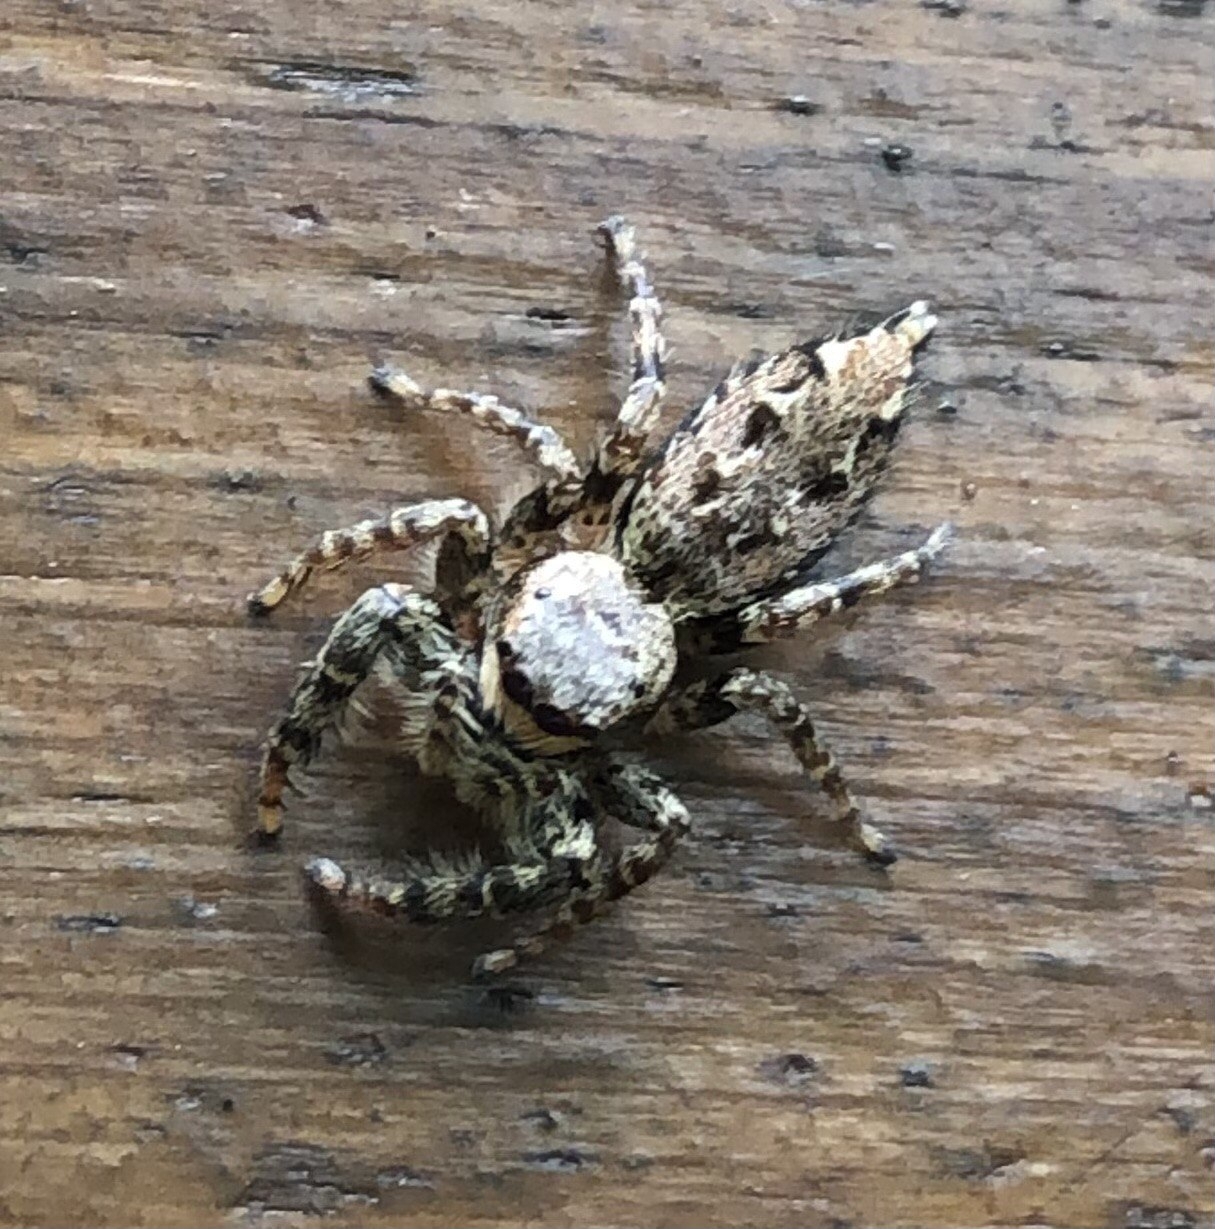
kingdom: Animalia
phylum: Arthropoda
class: Arachnida
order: Araneae
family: Salticidae
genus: Marpissa
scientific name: Marpissa muscosa
